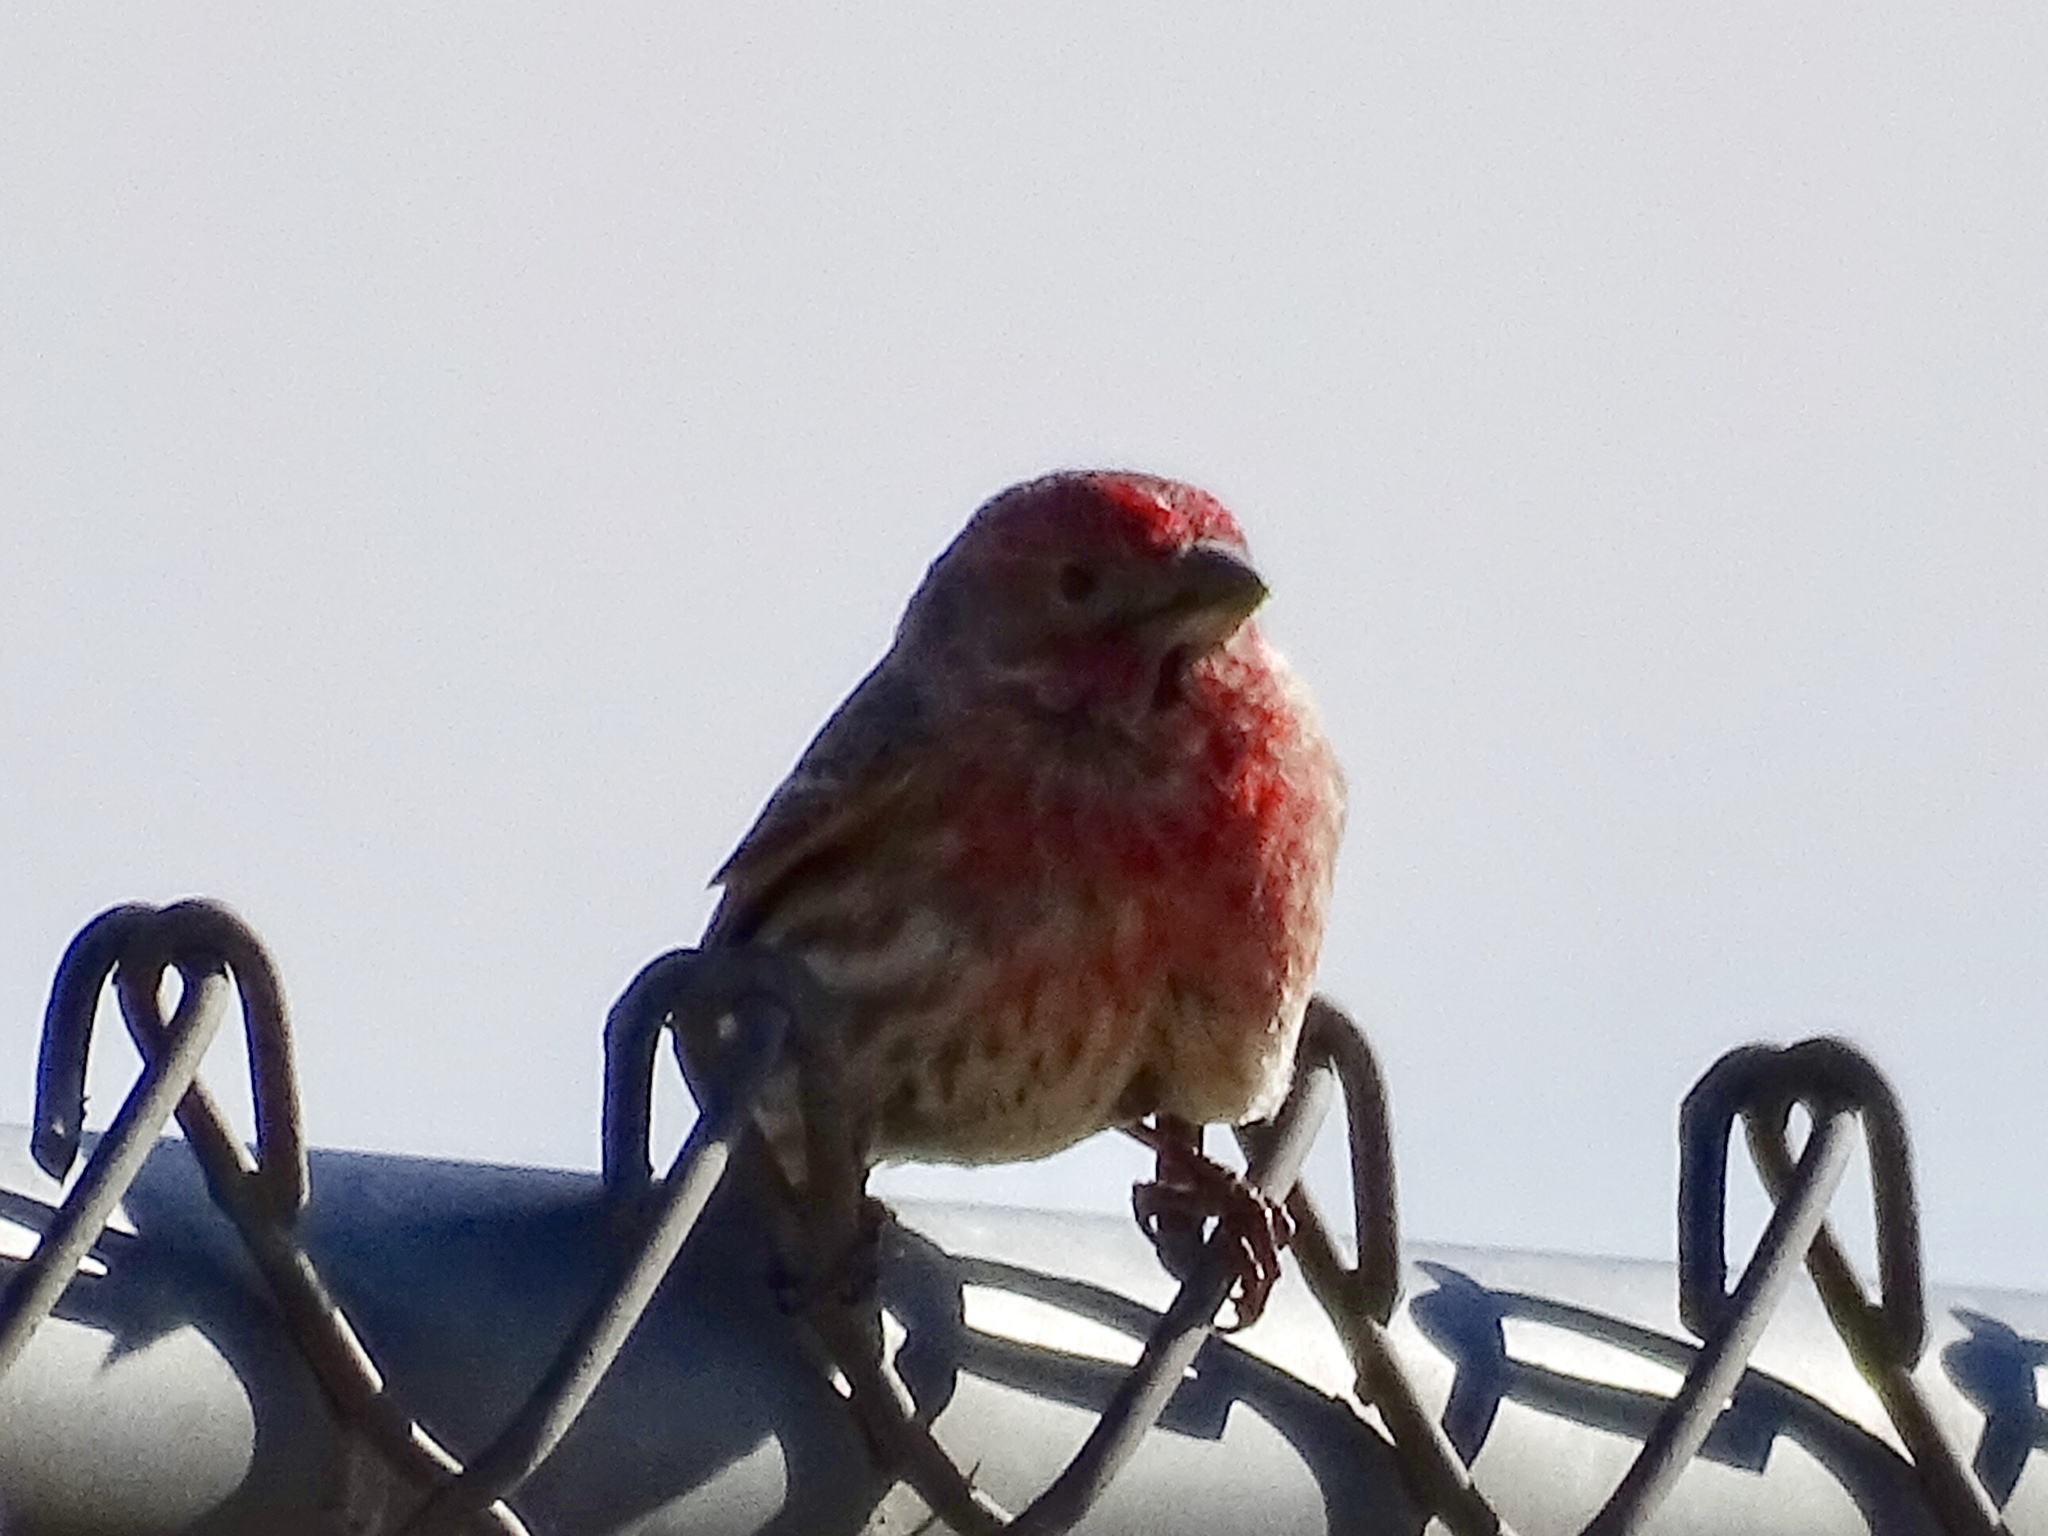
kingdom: Animalia
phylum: Chordata
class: Aves
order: Passeriformes
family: Fringillidae
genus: Haemorhous
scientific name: Haemorhous mexicanus
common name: House finch
